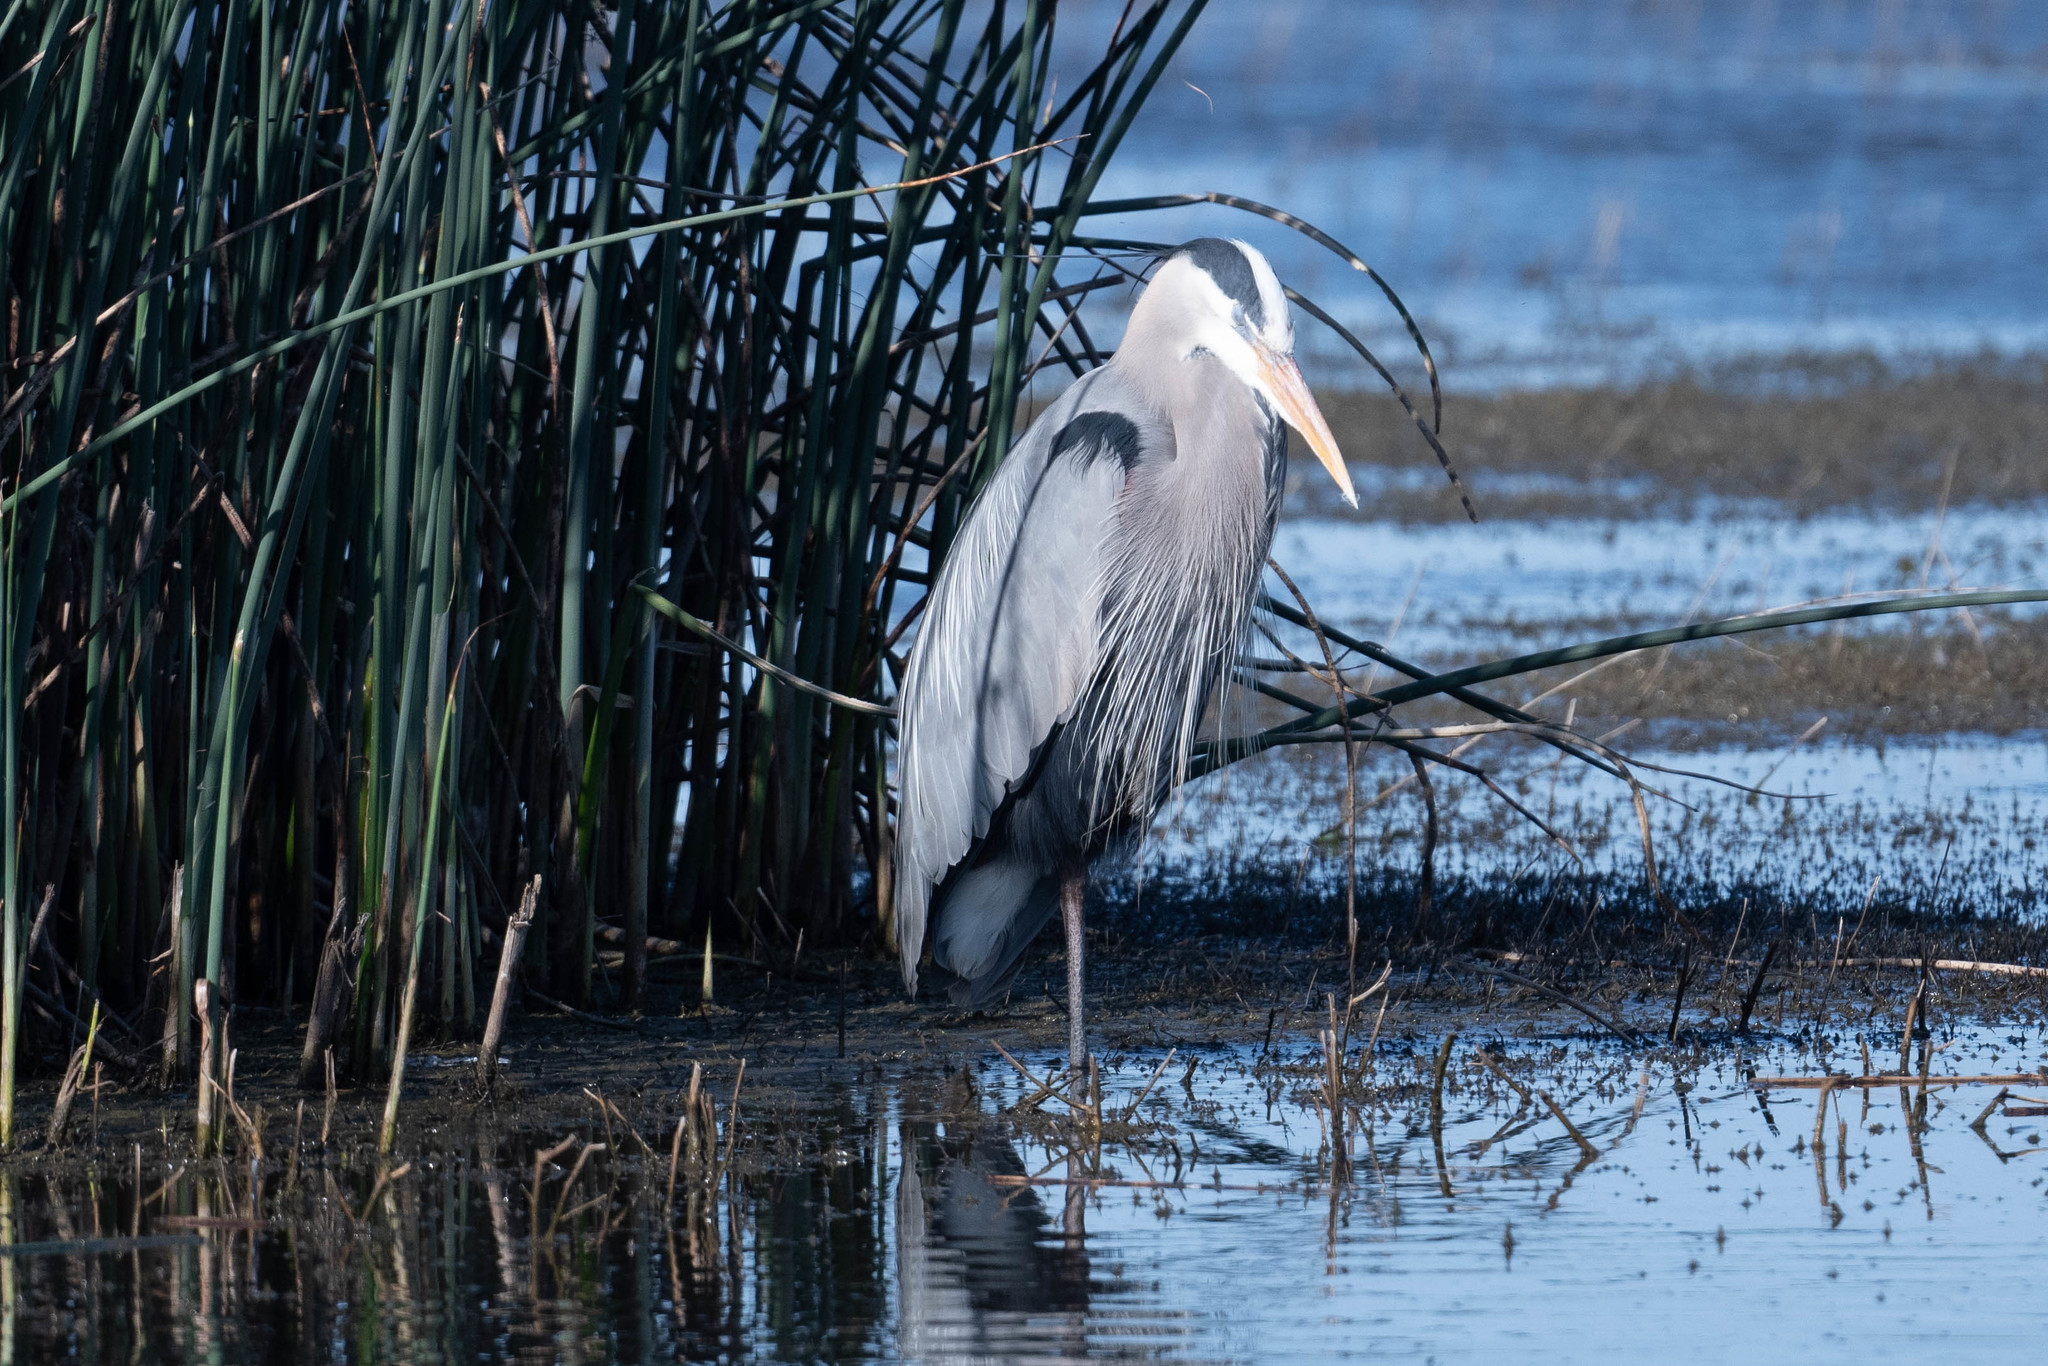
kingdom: Animalia
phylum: Chordata
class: Aves
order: Pelecaniformes
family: Ardeidae
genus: Ardea
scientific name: Ardea herodias
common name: Great blue heron
